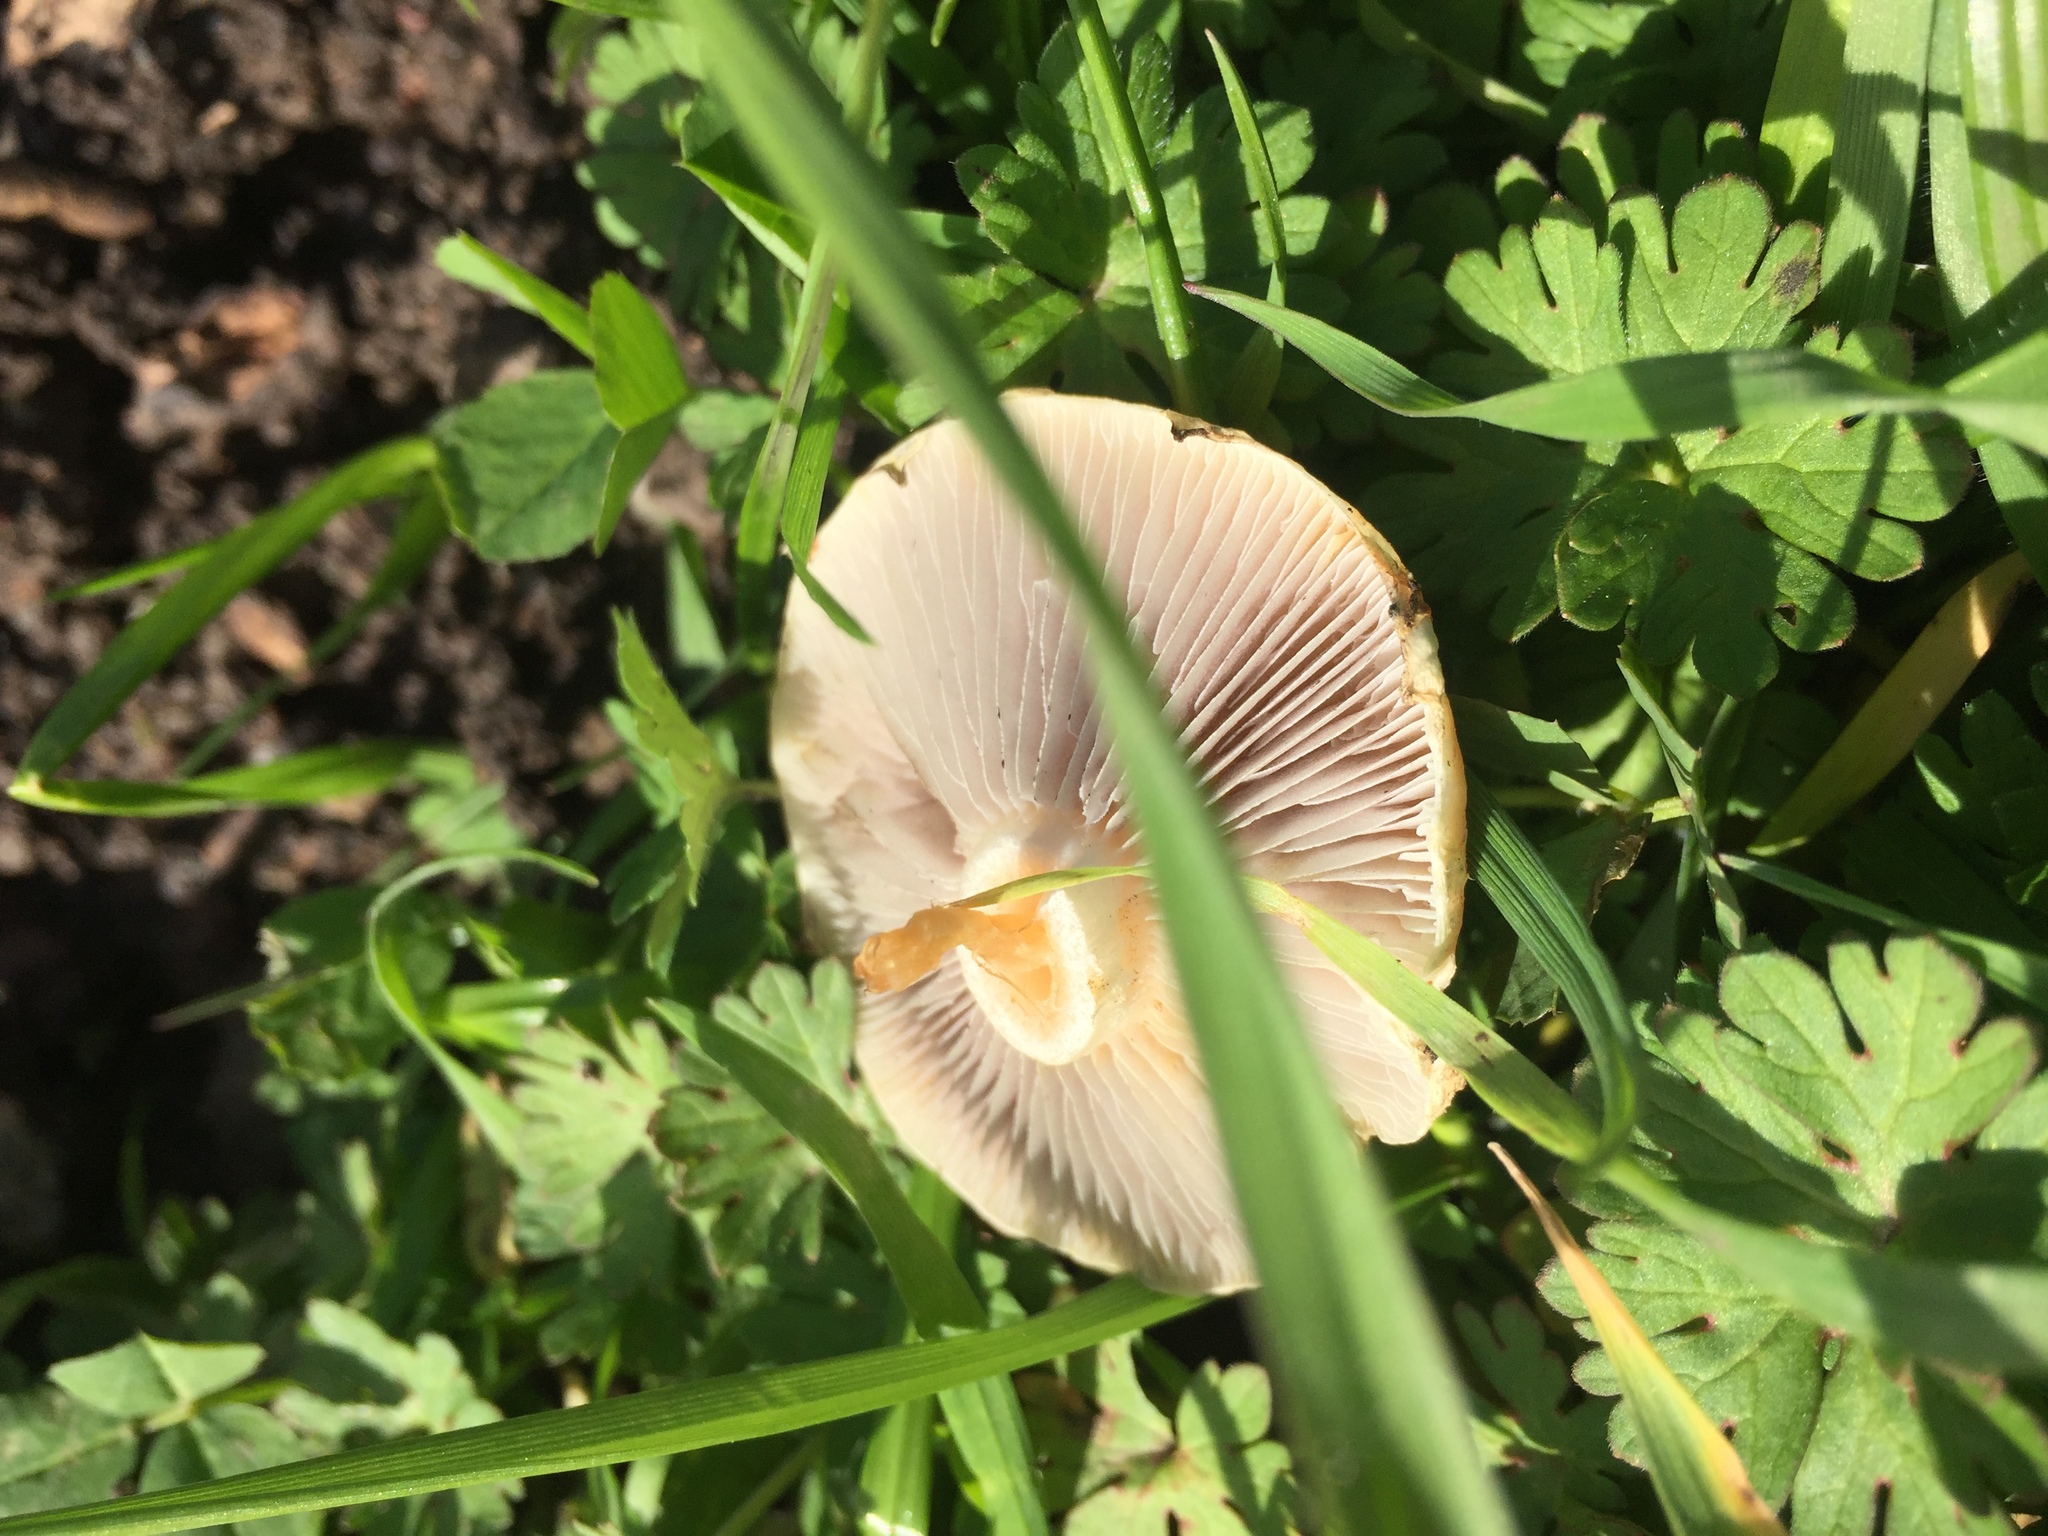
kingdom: Fungi
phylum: Basidiomycota
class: Agaricomycetes
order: Agaricales
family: Strophariaceae
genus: Agrocybe
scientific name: Agrocybe pediades
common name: Common fieldcap
